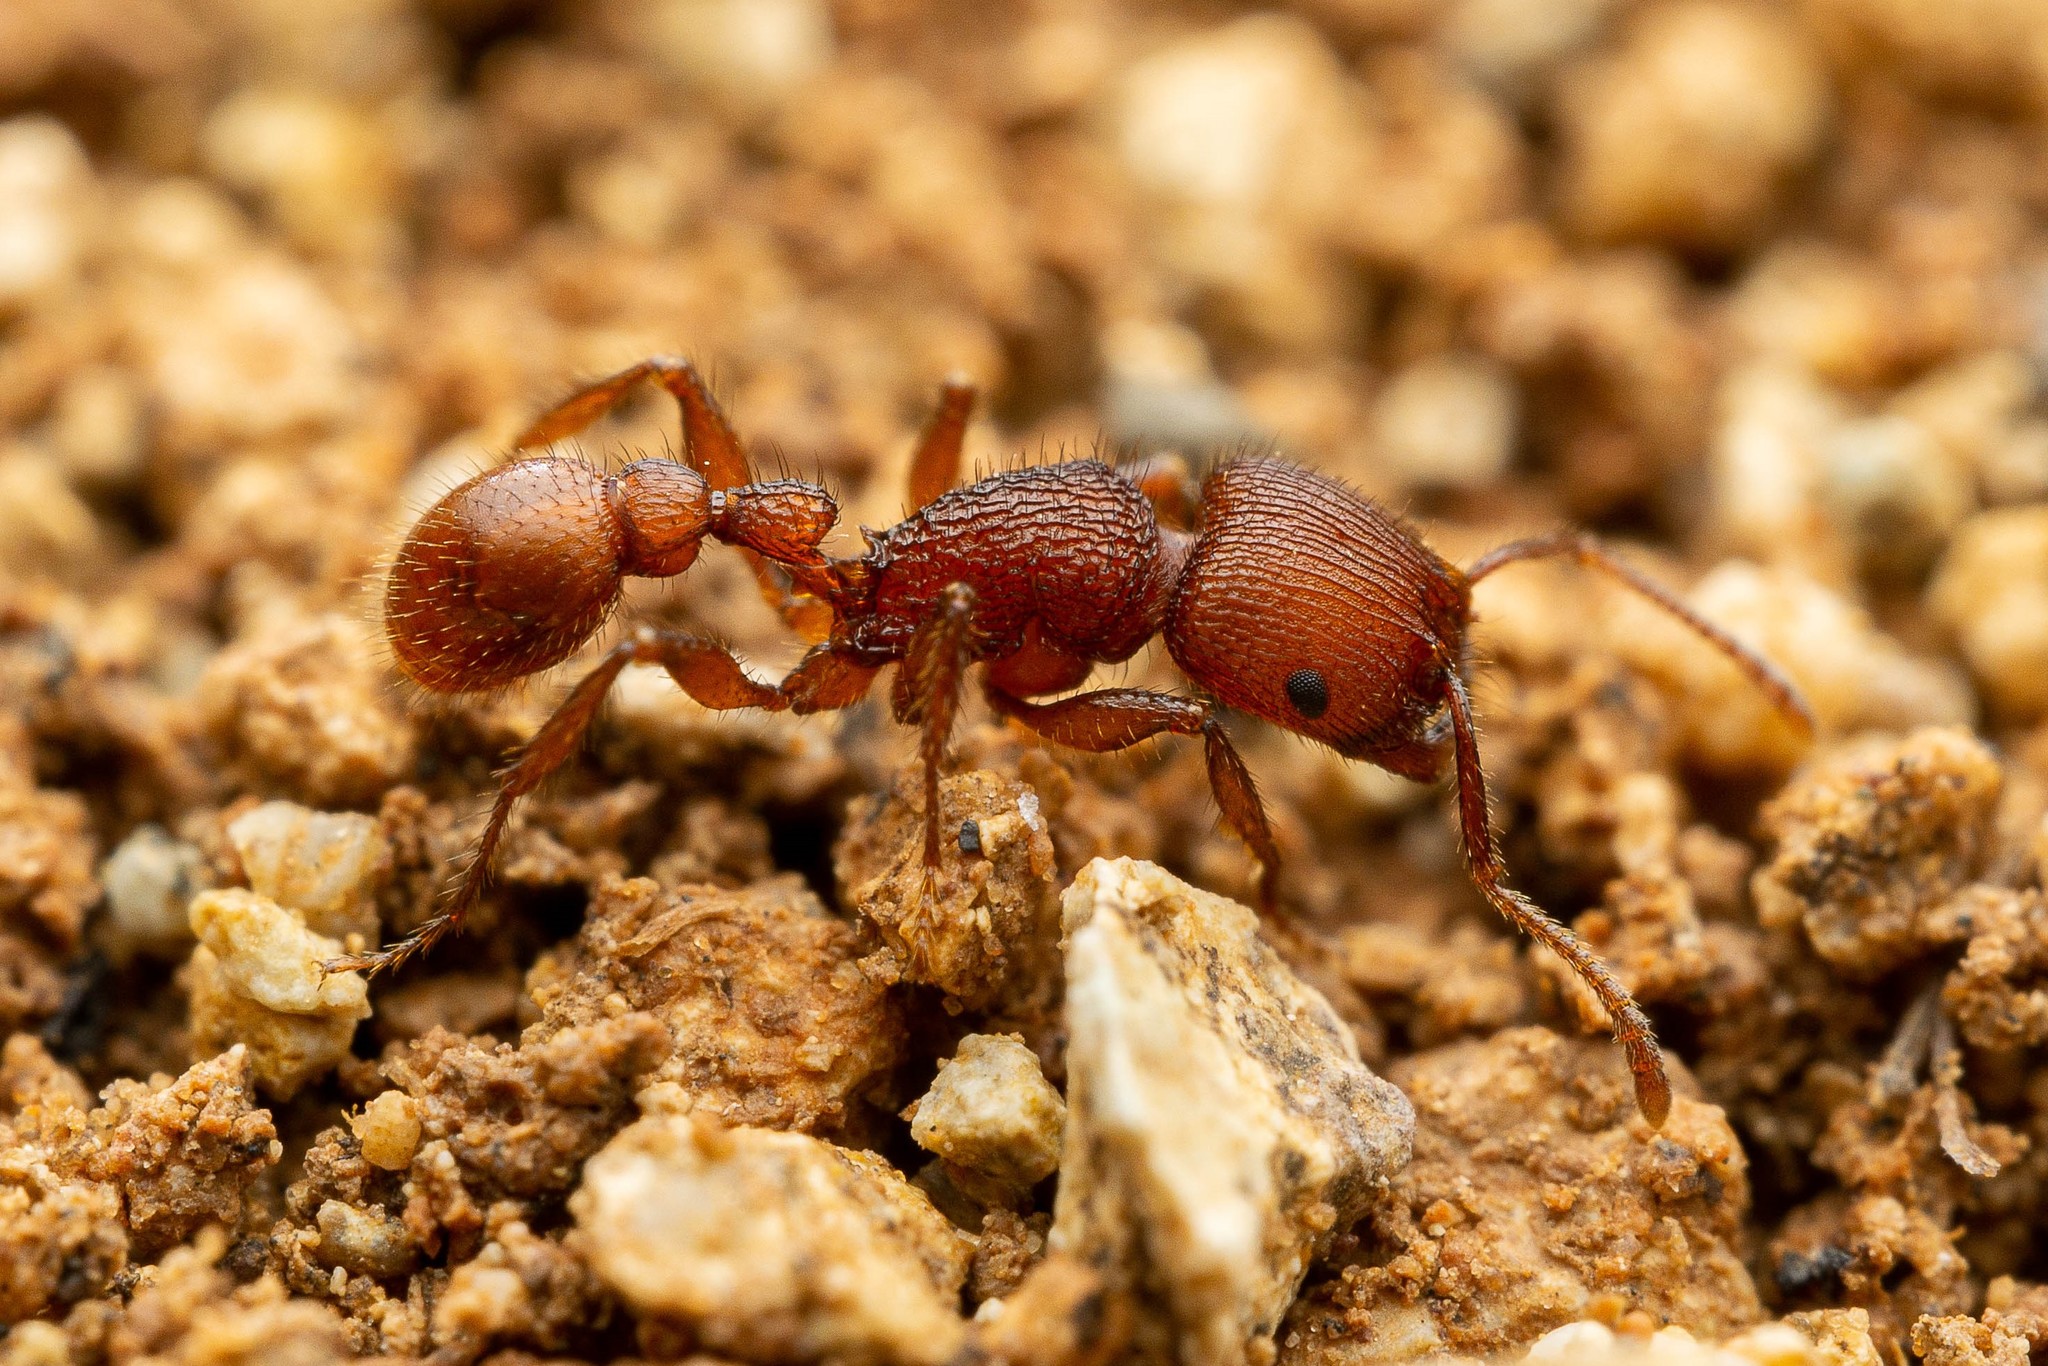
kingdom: Animalia
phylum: Arthropoda
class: Insecta
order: Hymenoptera
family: Formicidae
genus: Pogonomyrmex
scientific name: Pogonomyrmex imberbiculus
